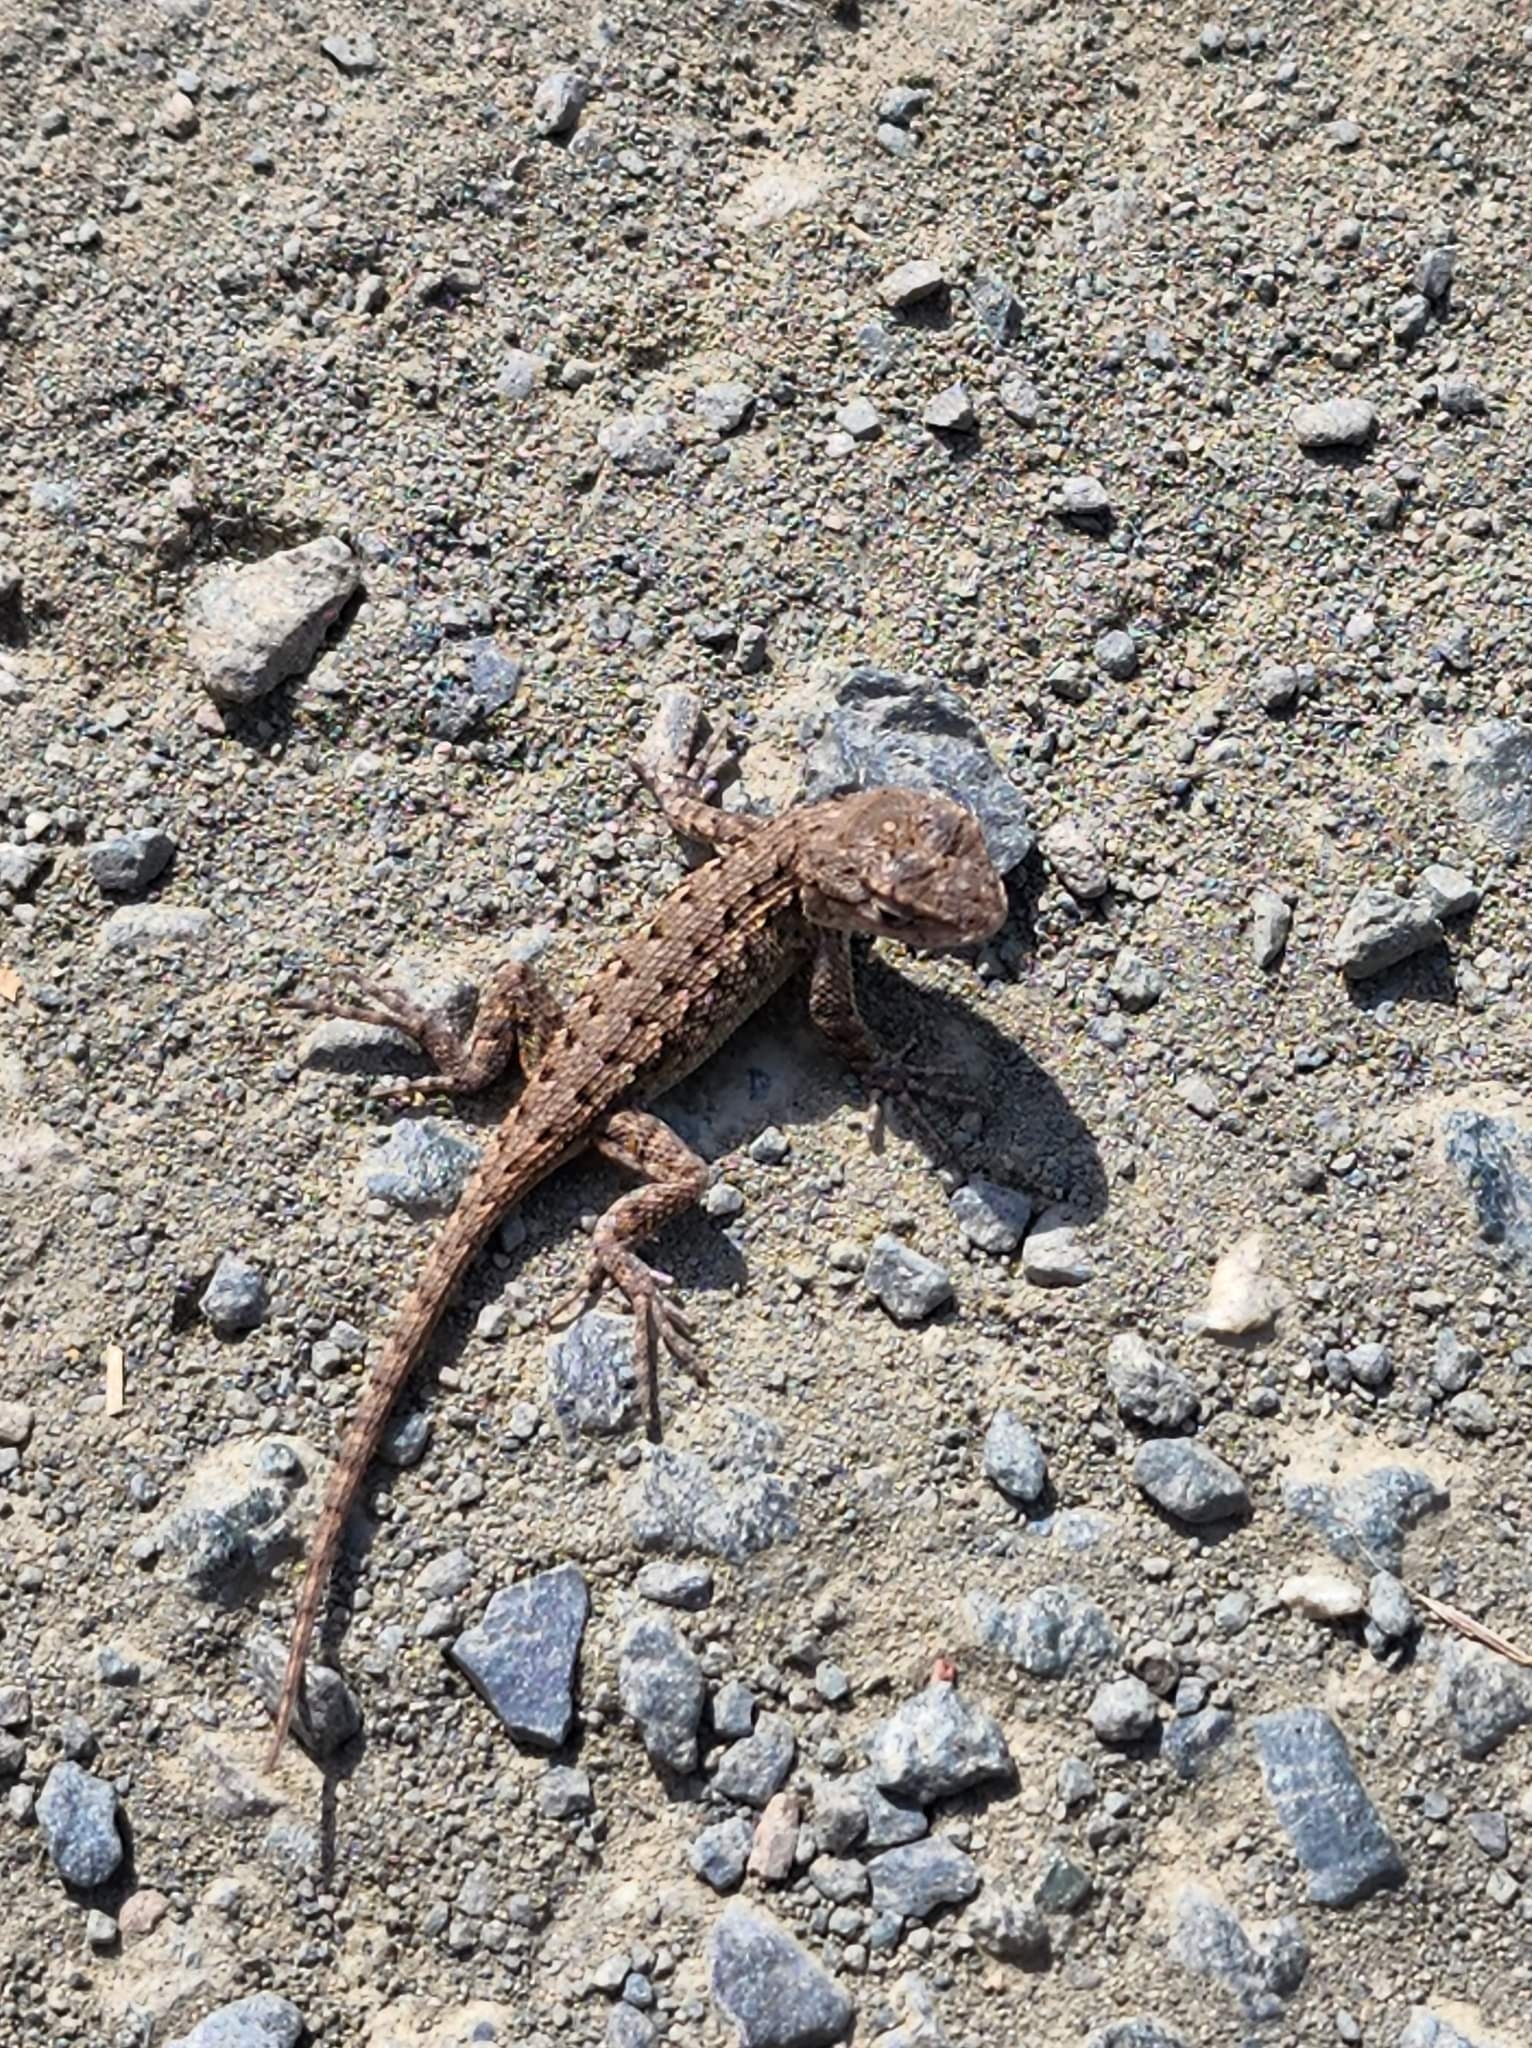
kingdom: Animalia
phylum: Chordata
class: Squamata
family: Phrynosomatidae
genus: Sceloporus
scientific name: Sceloporus occidentalis
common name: Western fence lizard
